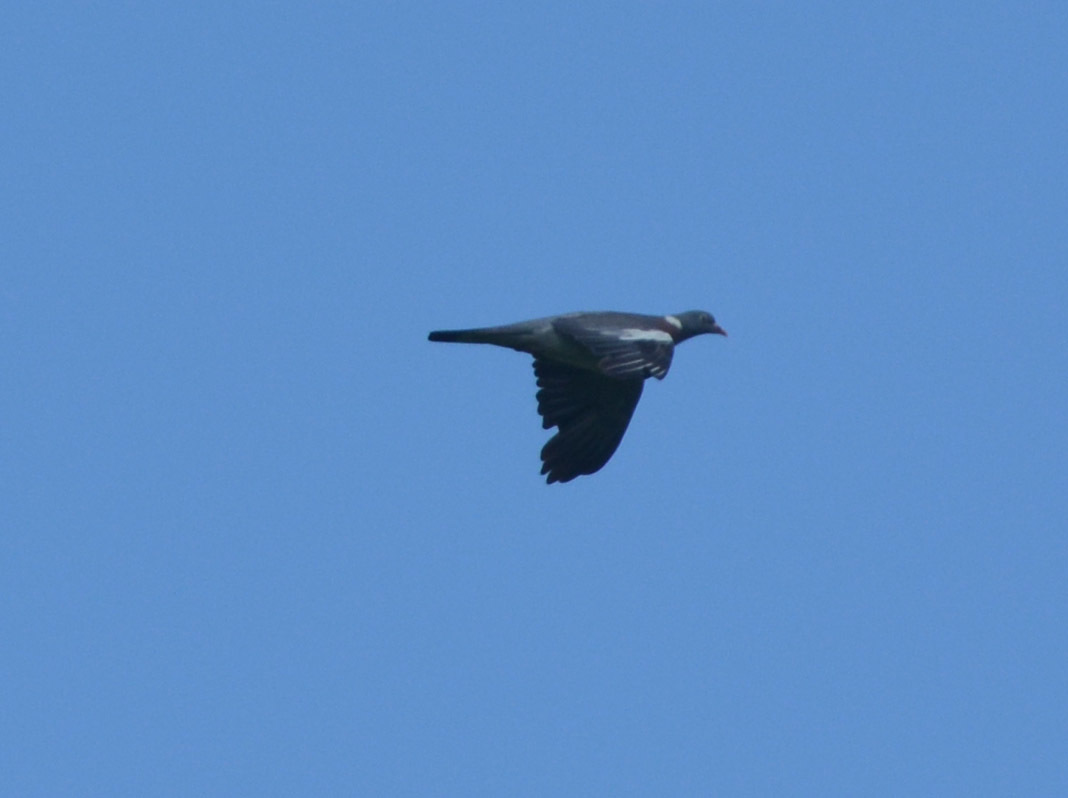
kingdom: Animalia
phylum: Chordata
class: Aves
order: Columbiformes
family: Columbidae
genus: Columba
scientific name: Columba palumbus
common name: Common wood pigeon
